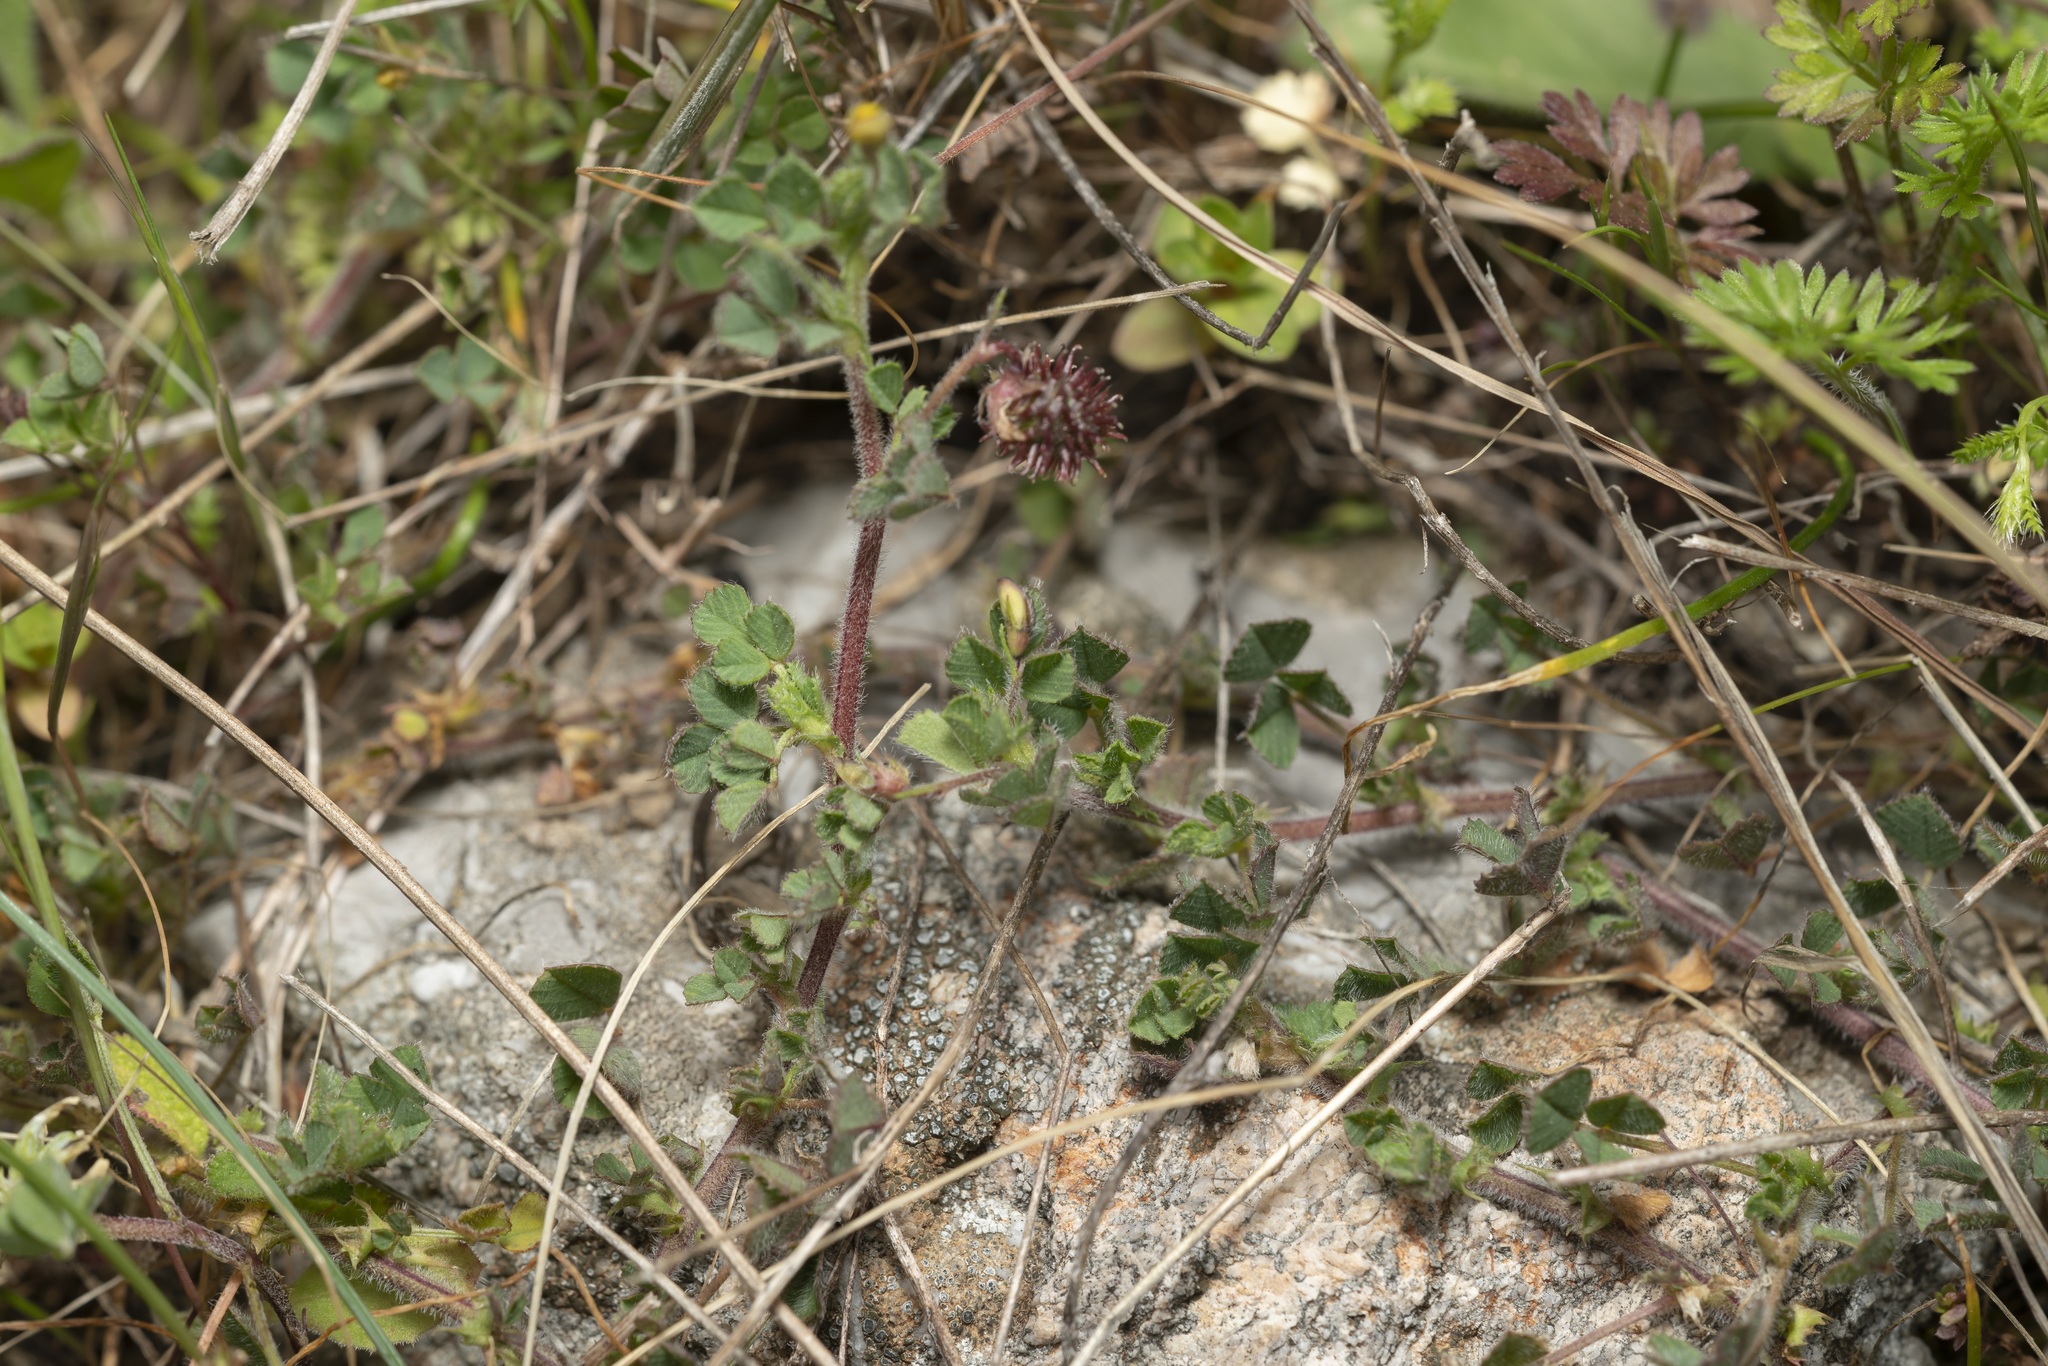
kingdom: Plantae
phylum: Tracheophyta
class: Magnoliopsida
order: Fabales
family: Fabaceae
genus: Medicago
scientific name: Medicago constricta
